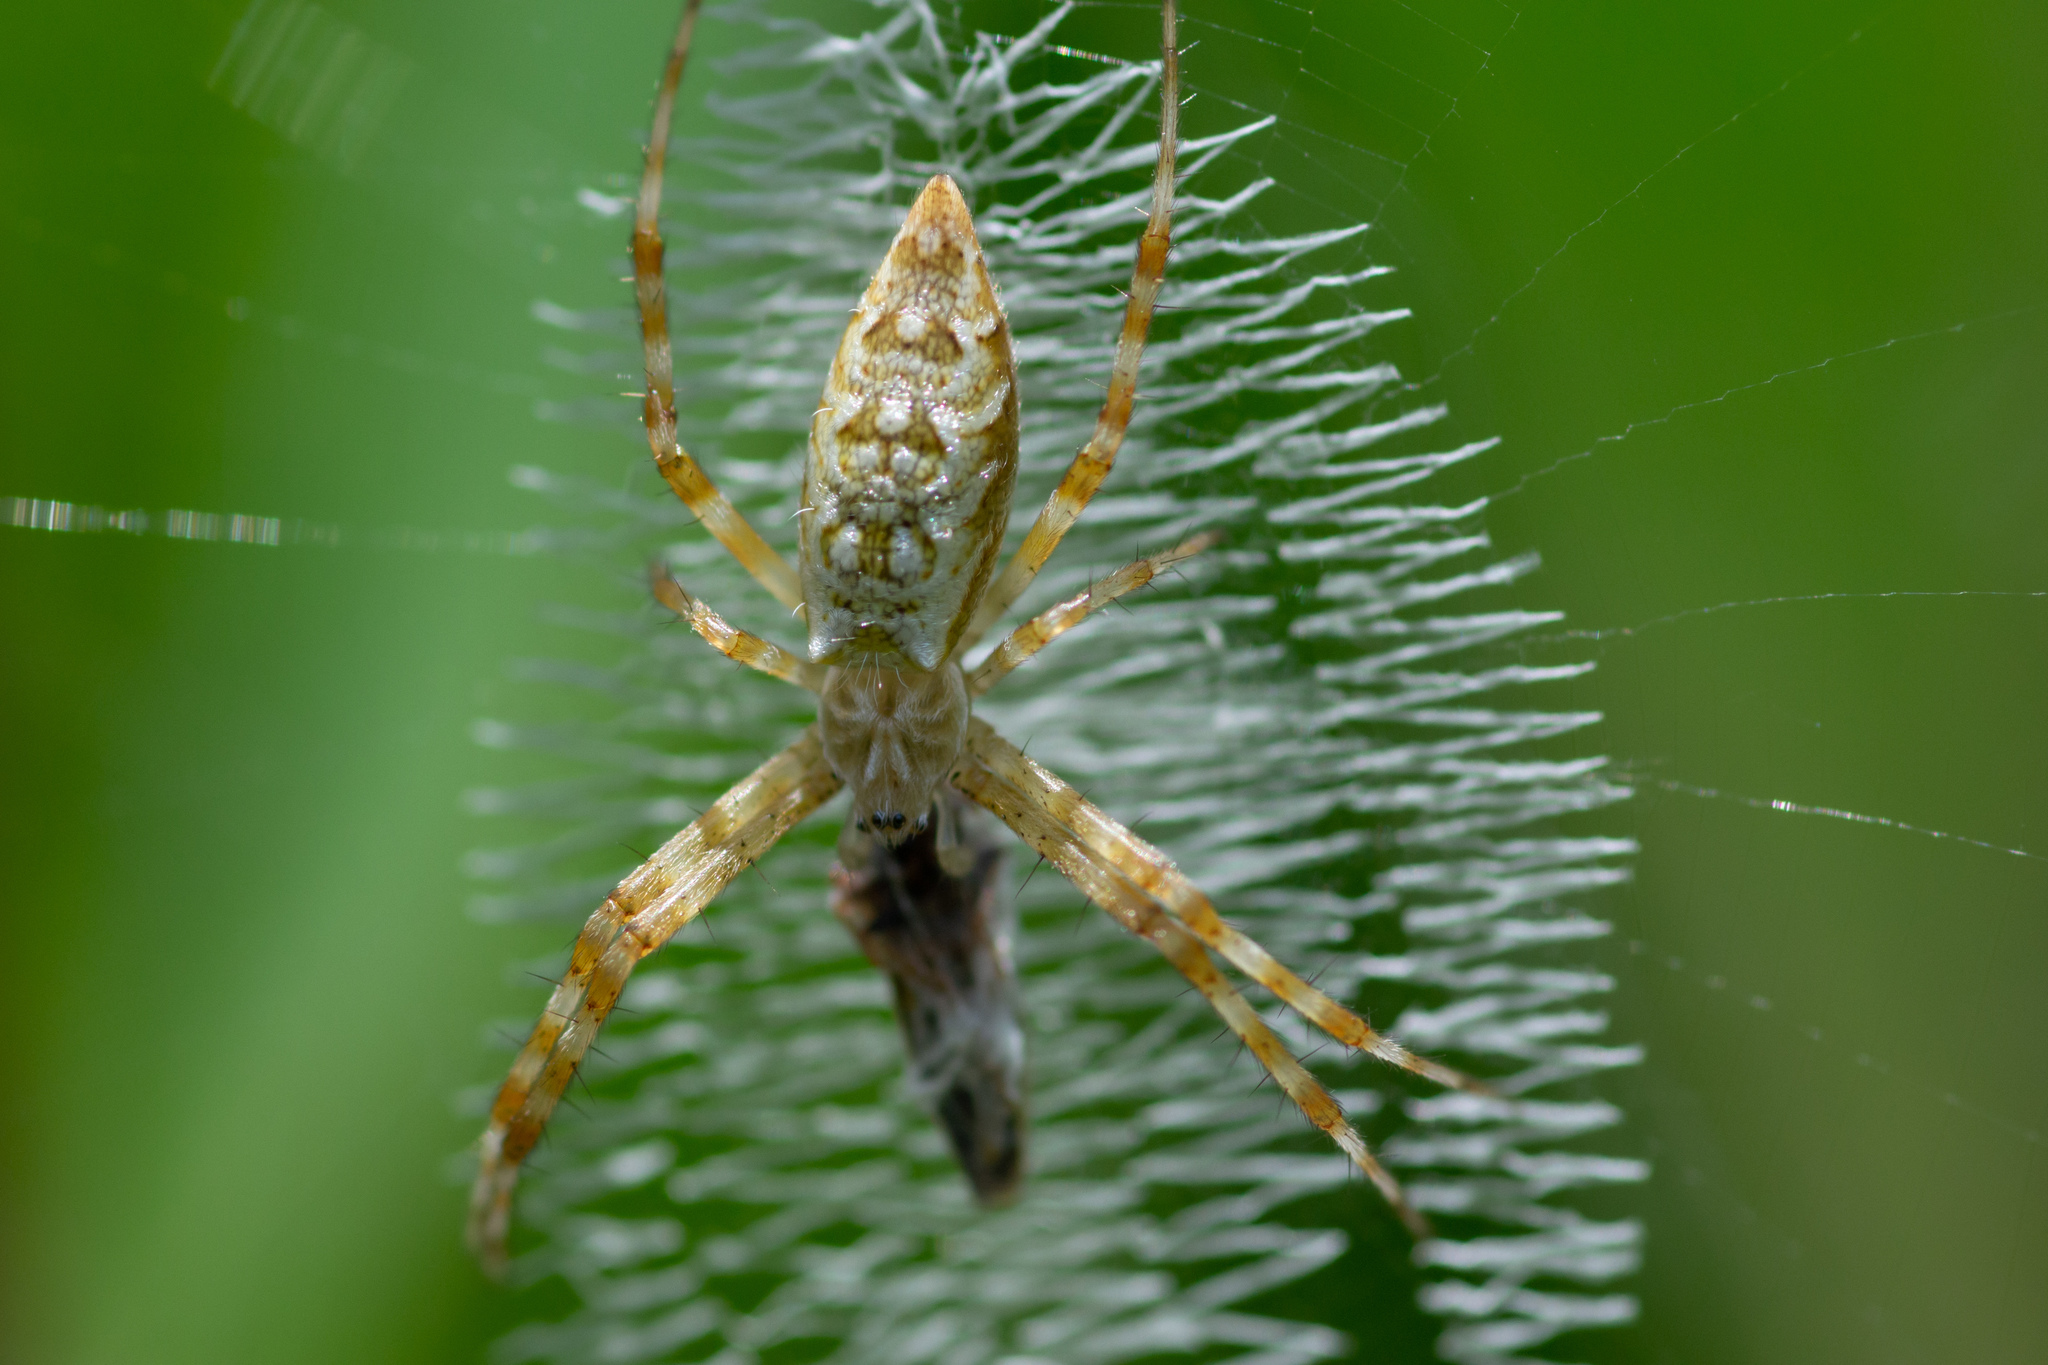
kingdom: Animalia
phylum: Arthropoda
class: Arachnida
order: Araneae
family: Araneidae
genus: Argiope
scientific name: Argiope aurantia
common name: Orb weavers
